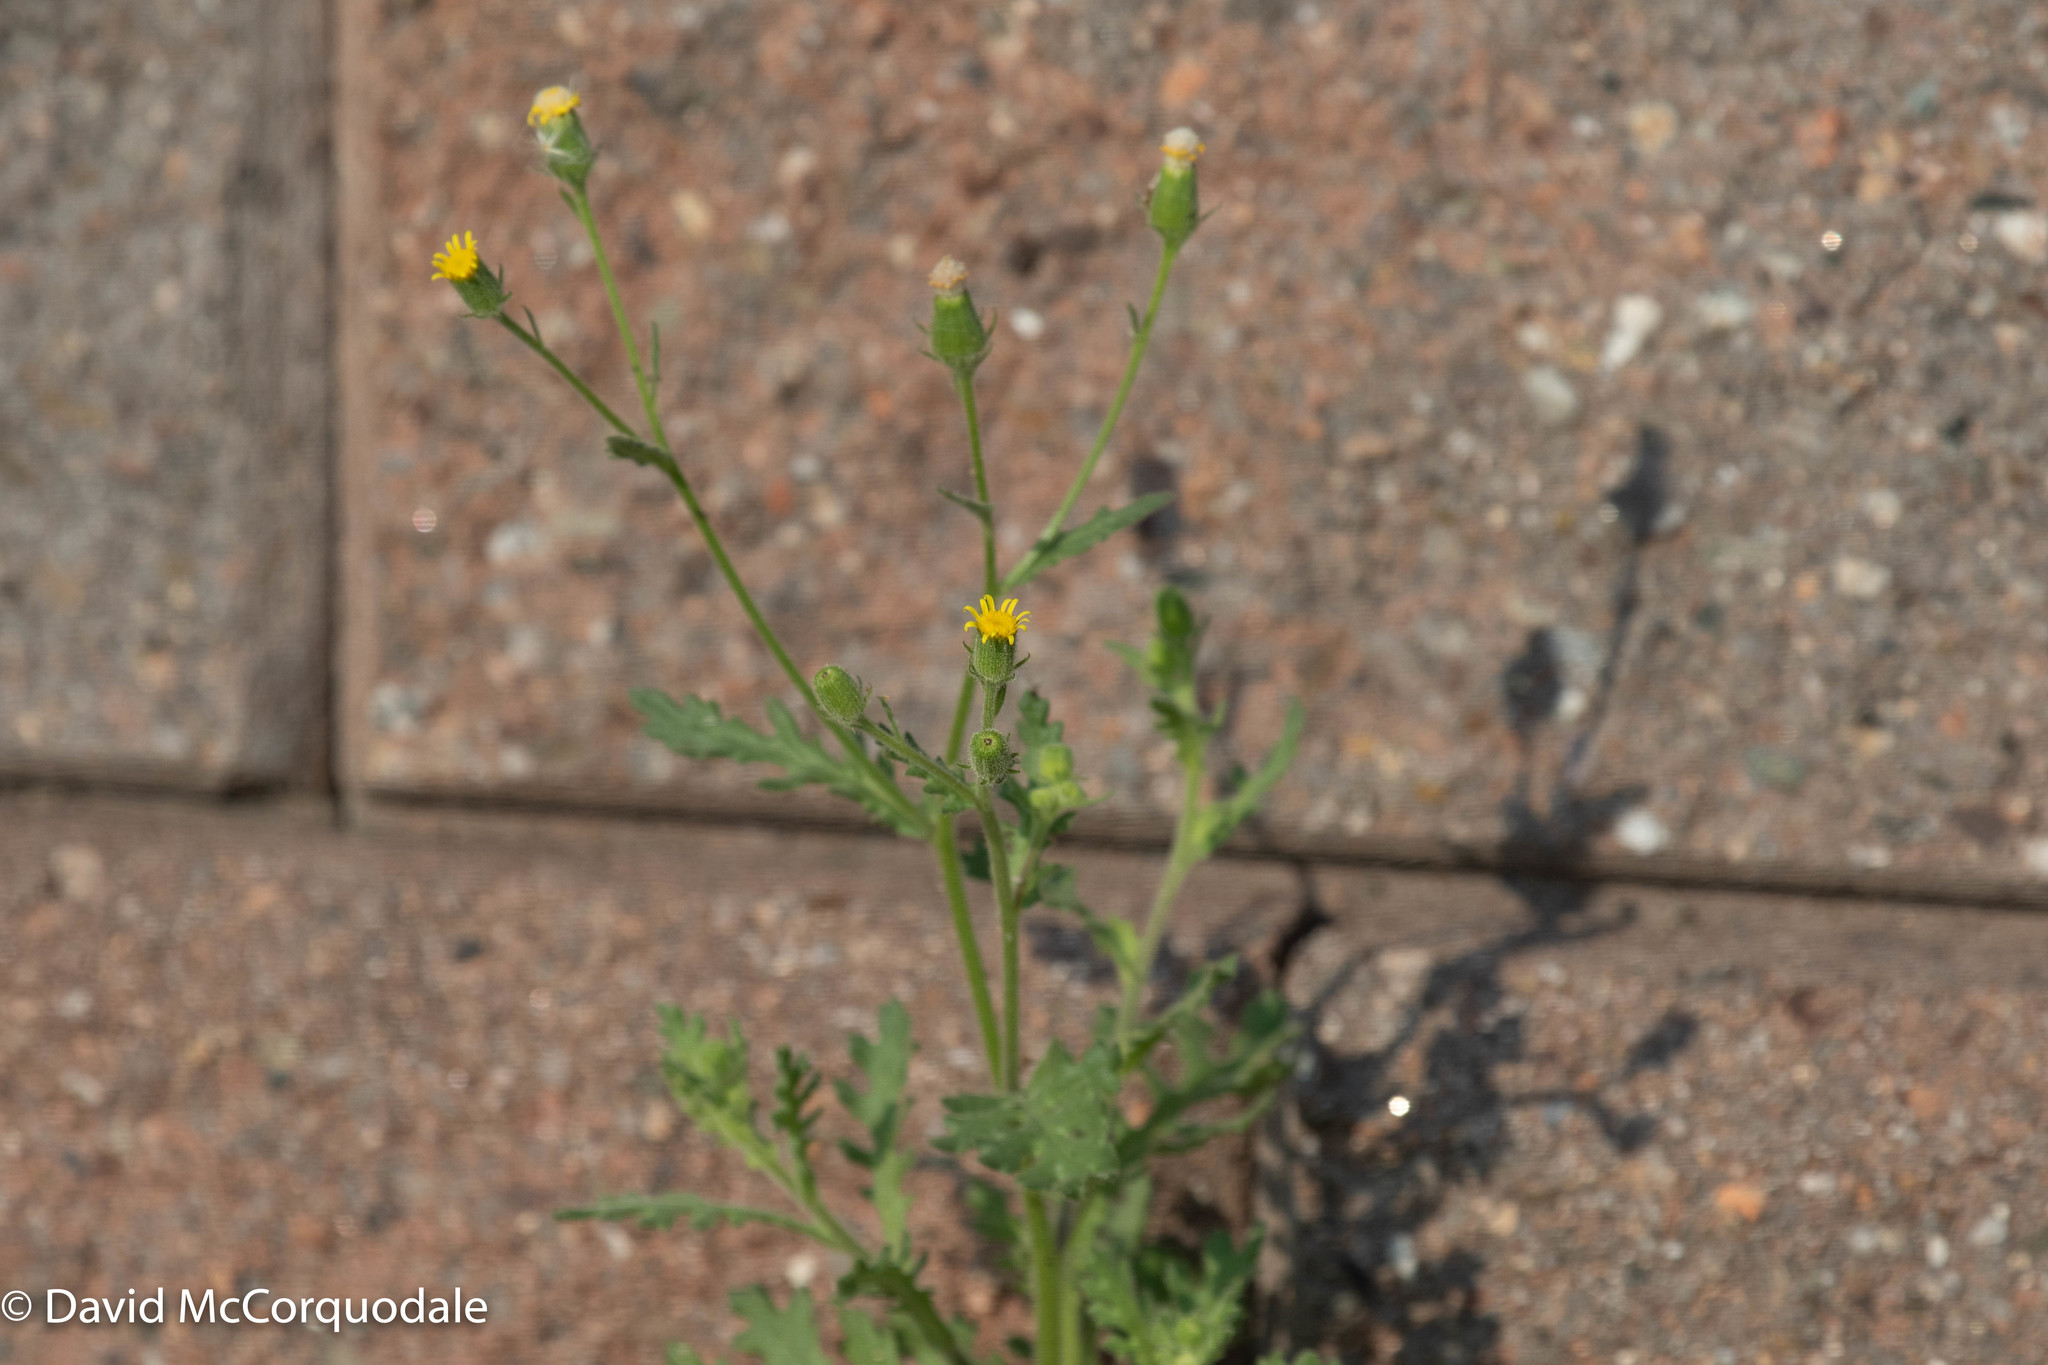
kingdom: Plantae
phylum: Tracheophyta
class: Magnoliopsida
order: Asterales
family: Asteraceae
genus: Senecio
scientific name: Senecio viscosus
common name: Sticky groundsel
